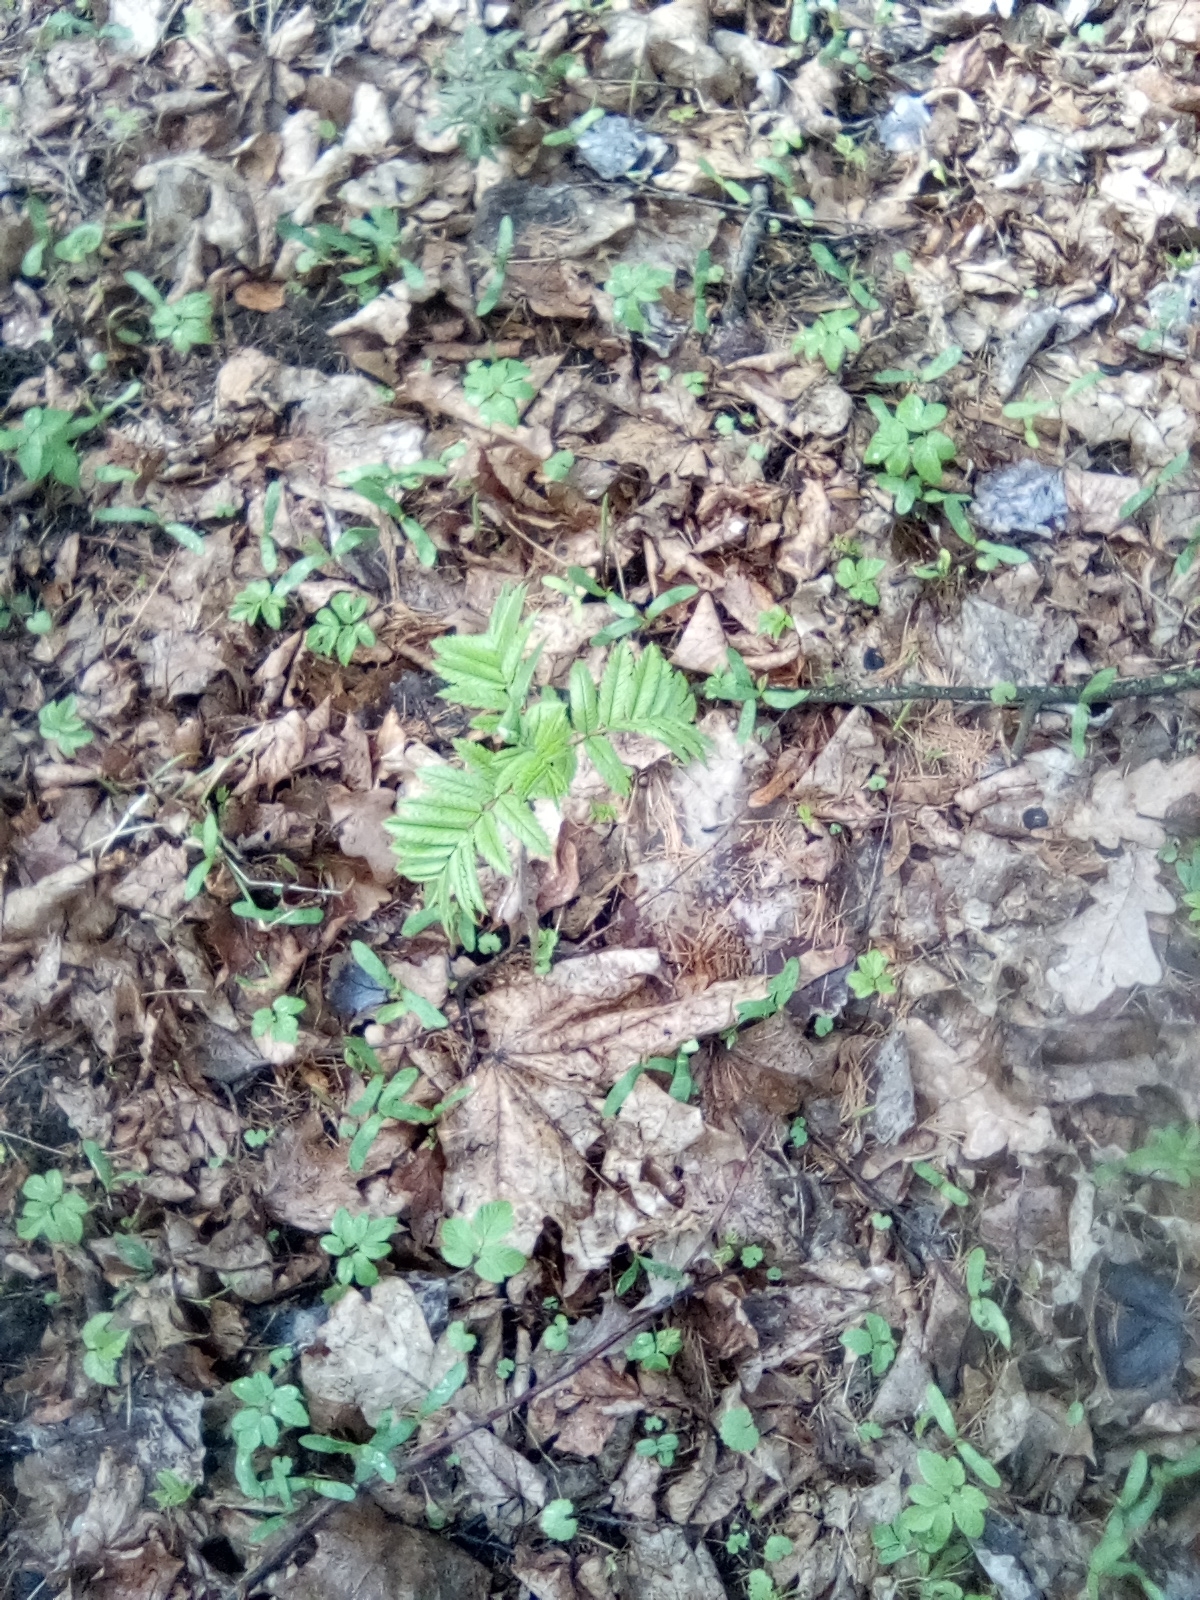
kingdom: Plantae
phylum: Tracheophyta
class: Magnoliopsida
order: Rosales
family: Rosaceae
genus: Sorbus
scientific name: Sorbus aucuparia
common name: Rowan
